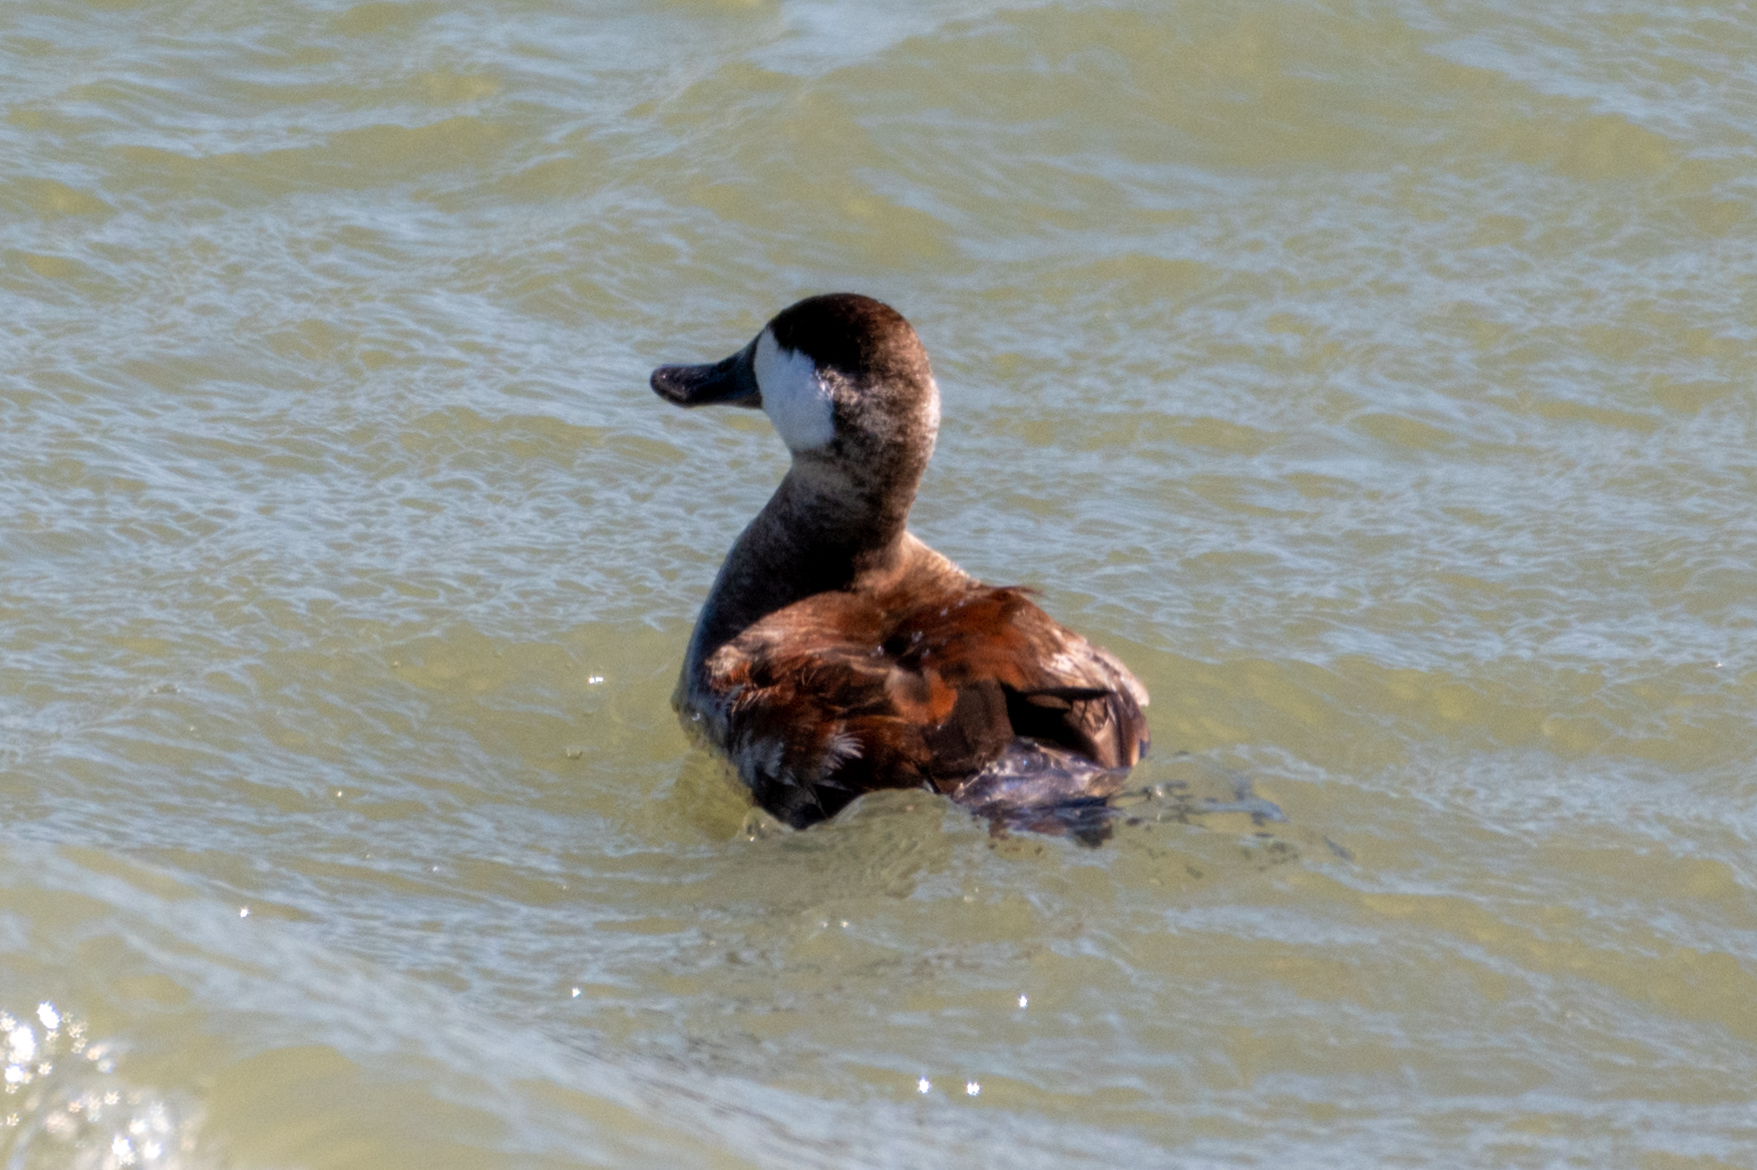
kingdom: Animalia
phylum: Chordata
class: Aves
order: Anseriformes
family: Anatidae
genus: Oxyura
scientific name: Oxyura jamaicensis
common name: Ruddy duck
